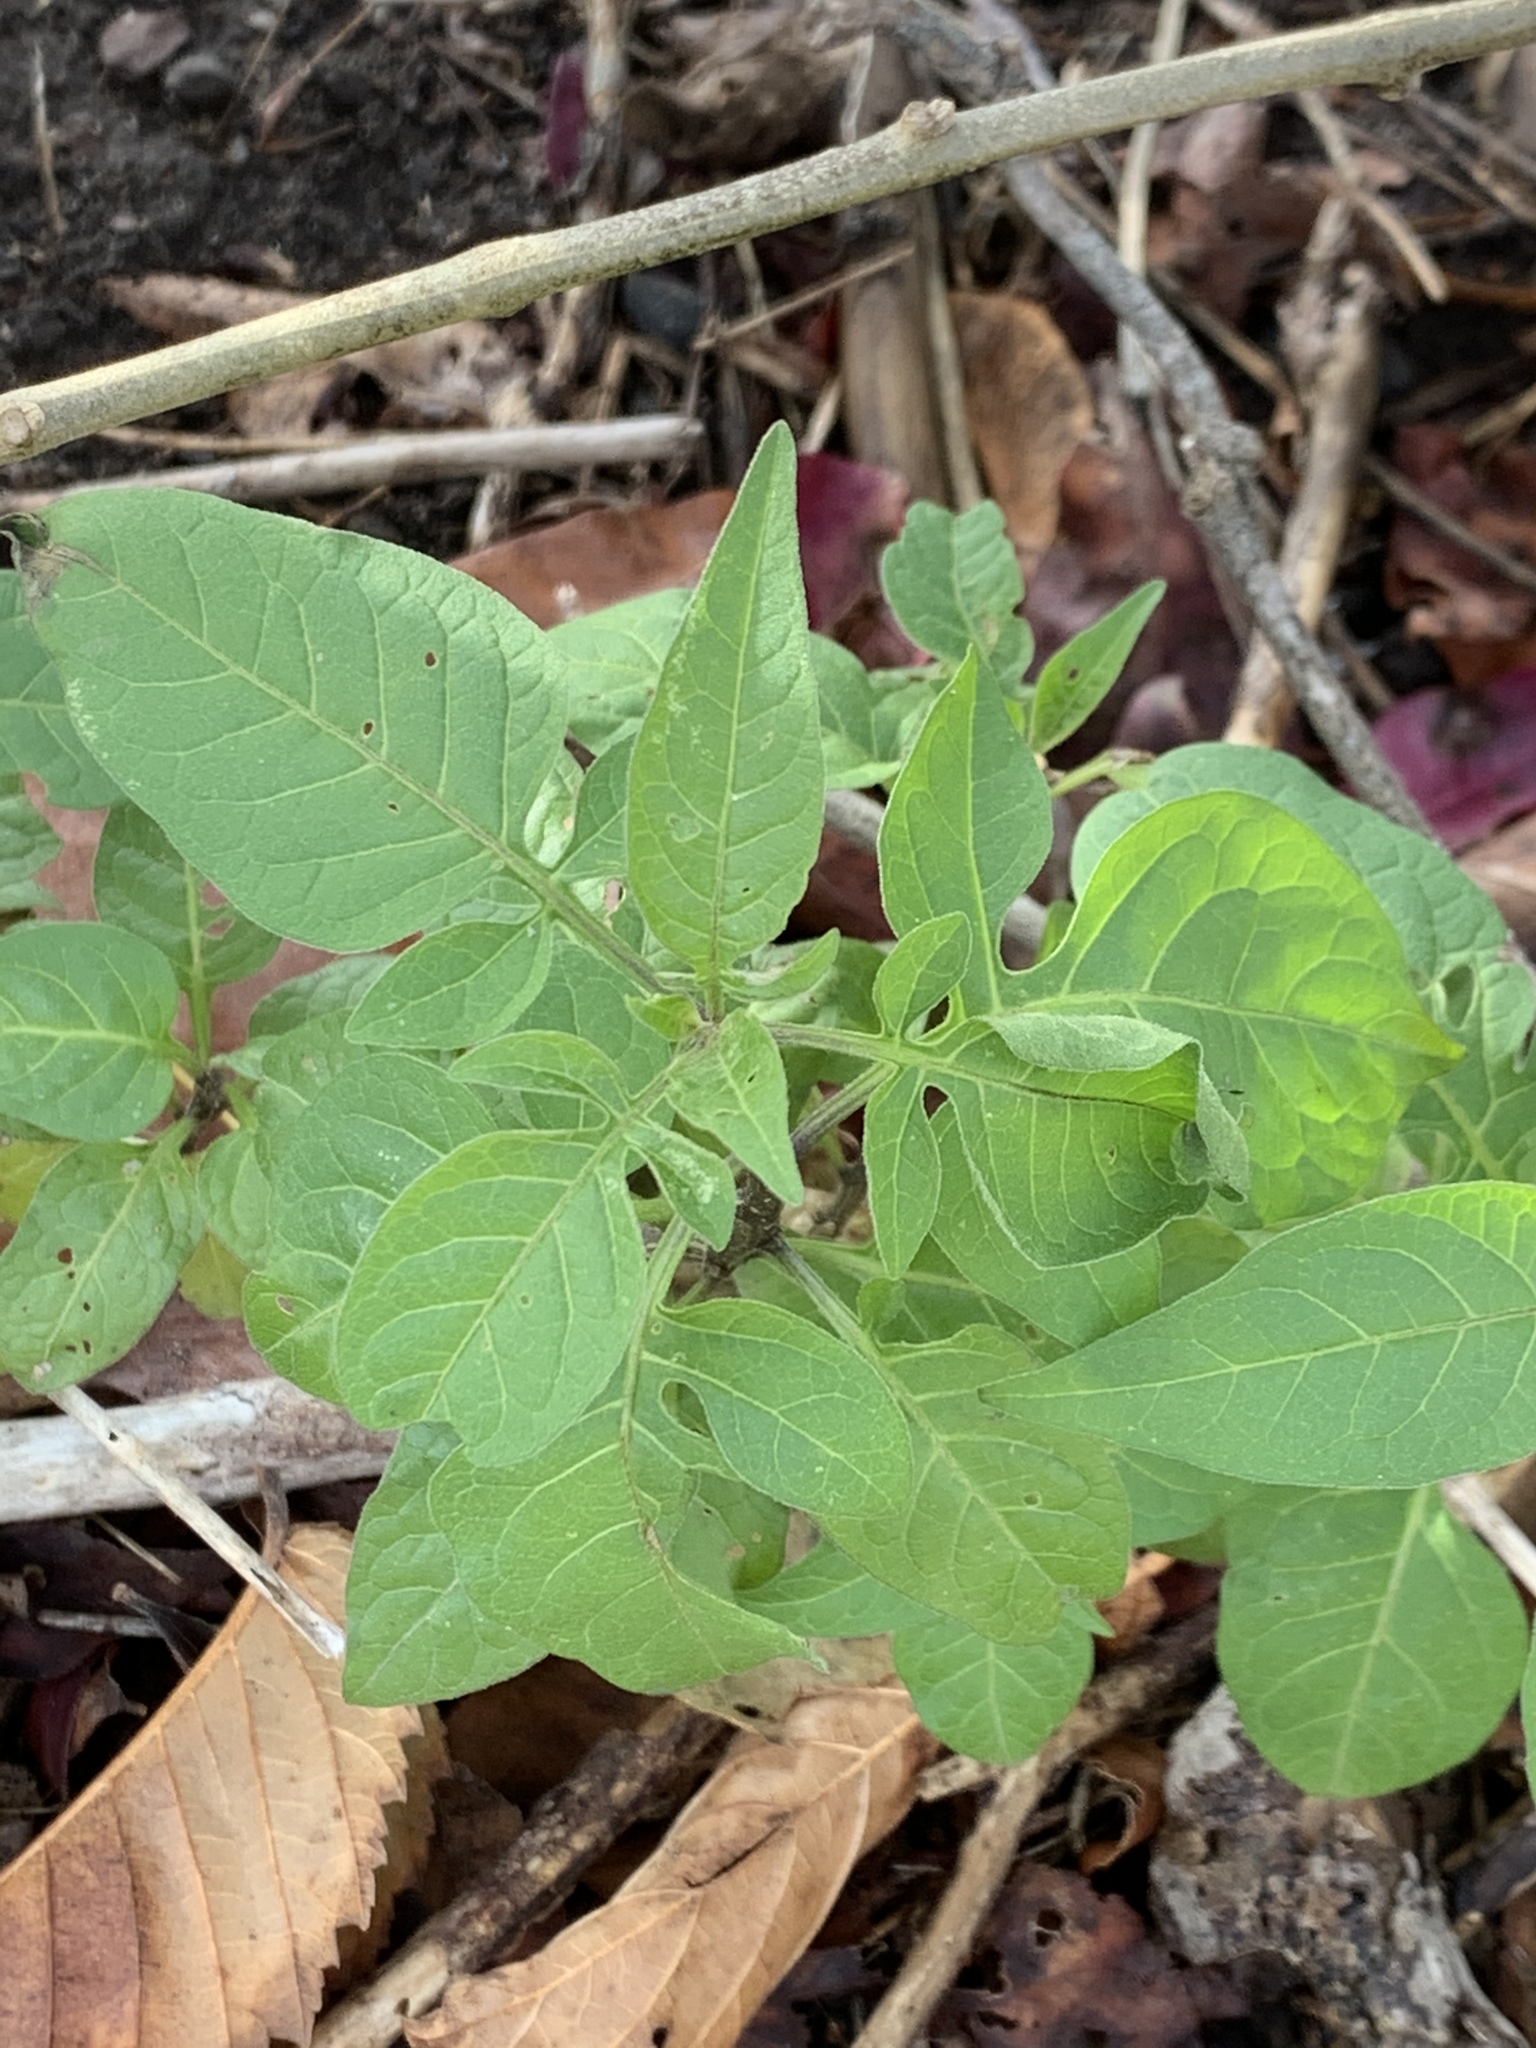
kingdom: Plantae
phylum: Tracheophyta
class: Magnoliopsida
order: Solanales
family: Solanaceae
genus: Solanum
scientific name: Solanum dulcamara
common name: Climbing nightshade
